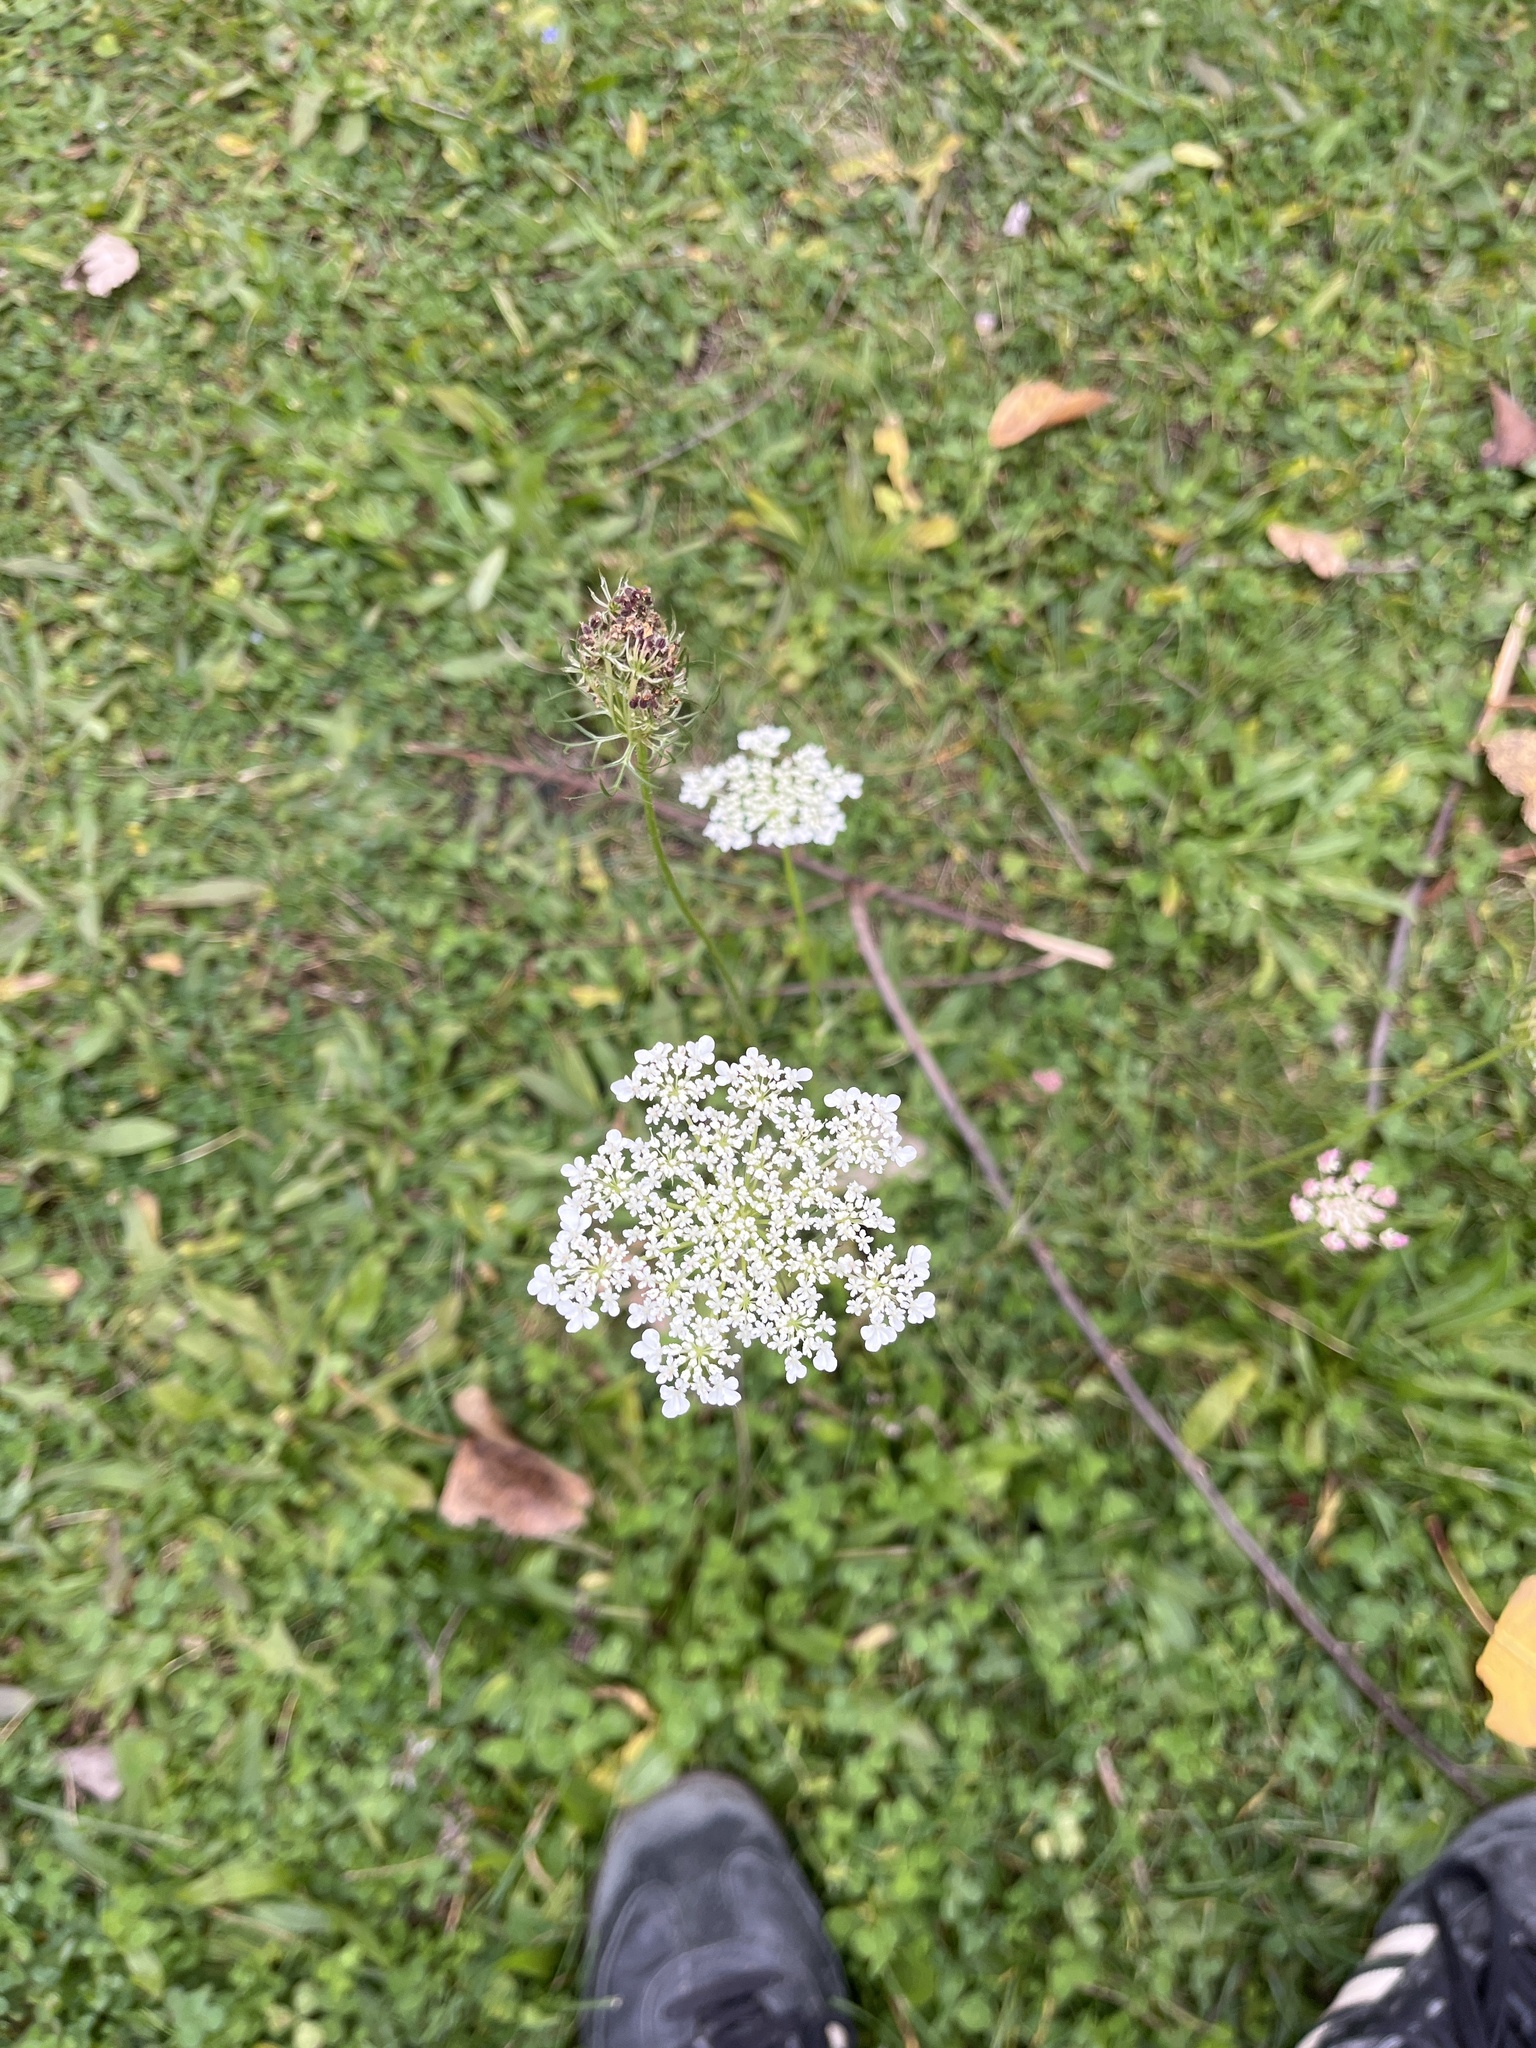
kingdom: Plantae
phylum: Tracheophyta
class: Magnoliopsida
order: Apiales
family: Apiaceae
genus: Daucus
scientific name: Daucus carota
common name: Wild carrot
